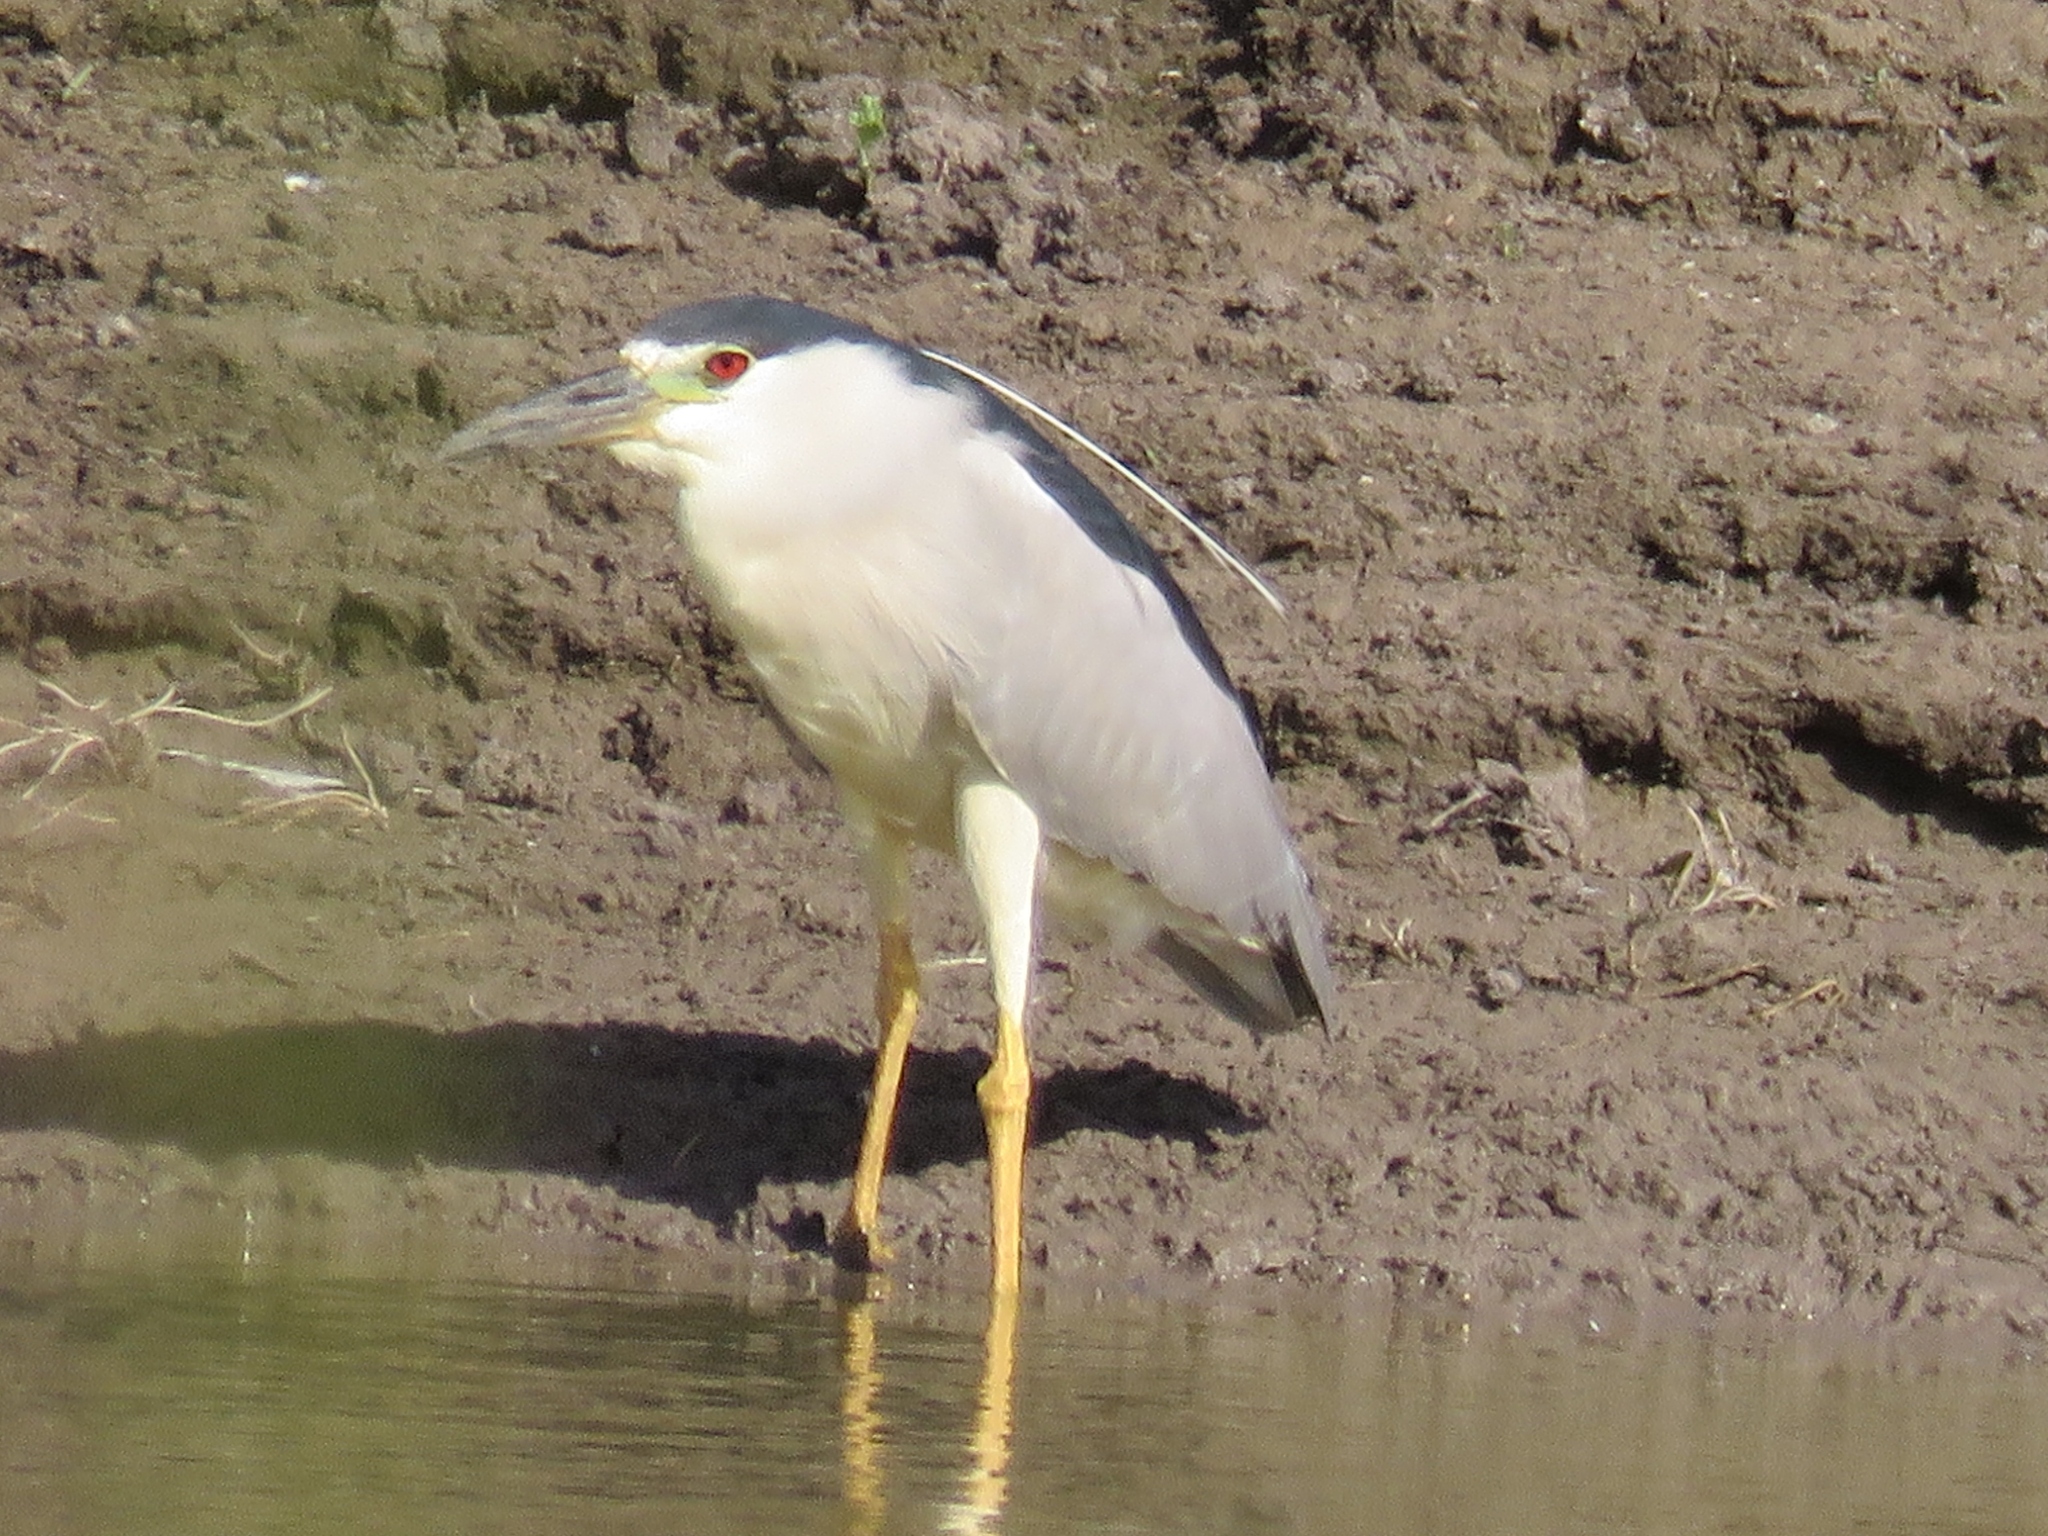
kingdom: Animalia
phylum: Chordata
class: Aves
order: Pelecaniformes
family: Ardeidae
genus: Nycticorax
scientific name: Nycticorax nycticorax
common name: Black-crowned night heron
